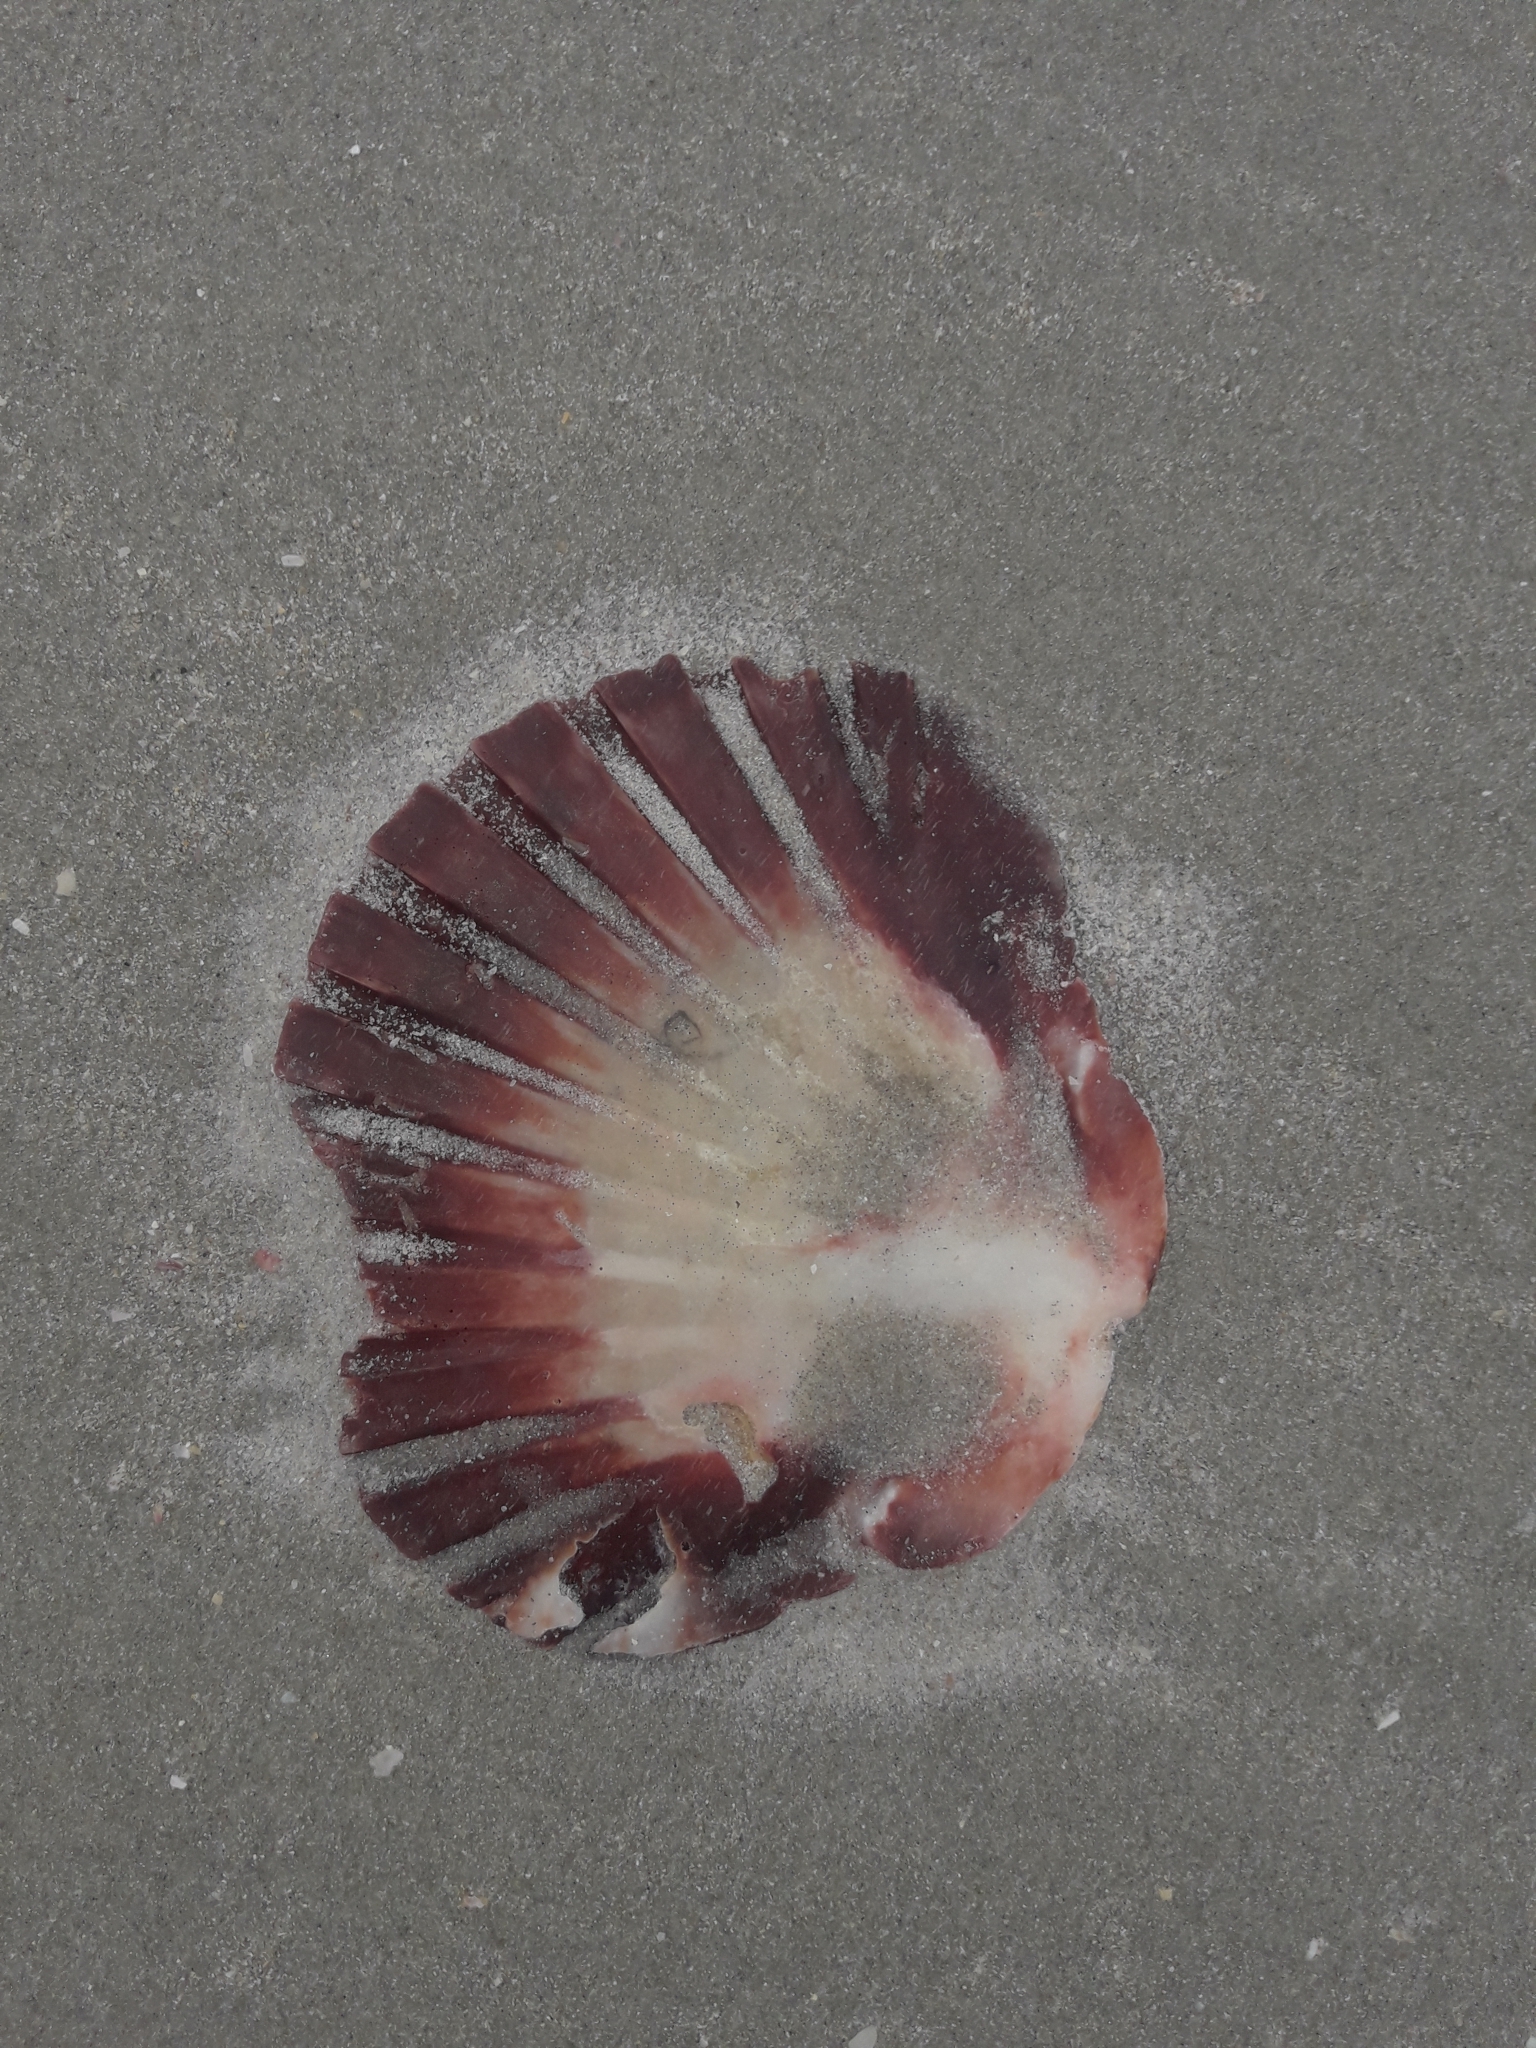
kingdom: Animalia
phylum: Mollusca
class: Bivalvia
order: Pectinida
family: Pectinidae
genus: Pecten
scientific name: Pecten novaezelandiae
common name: New zealand scallop
